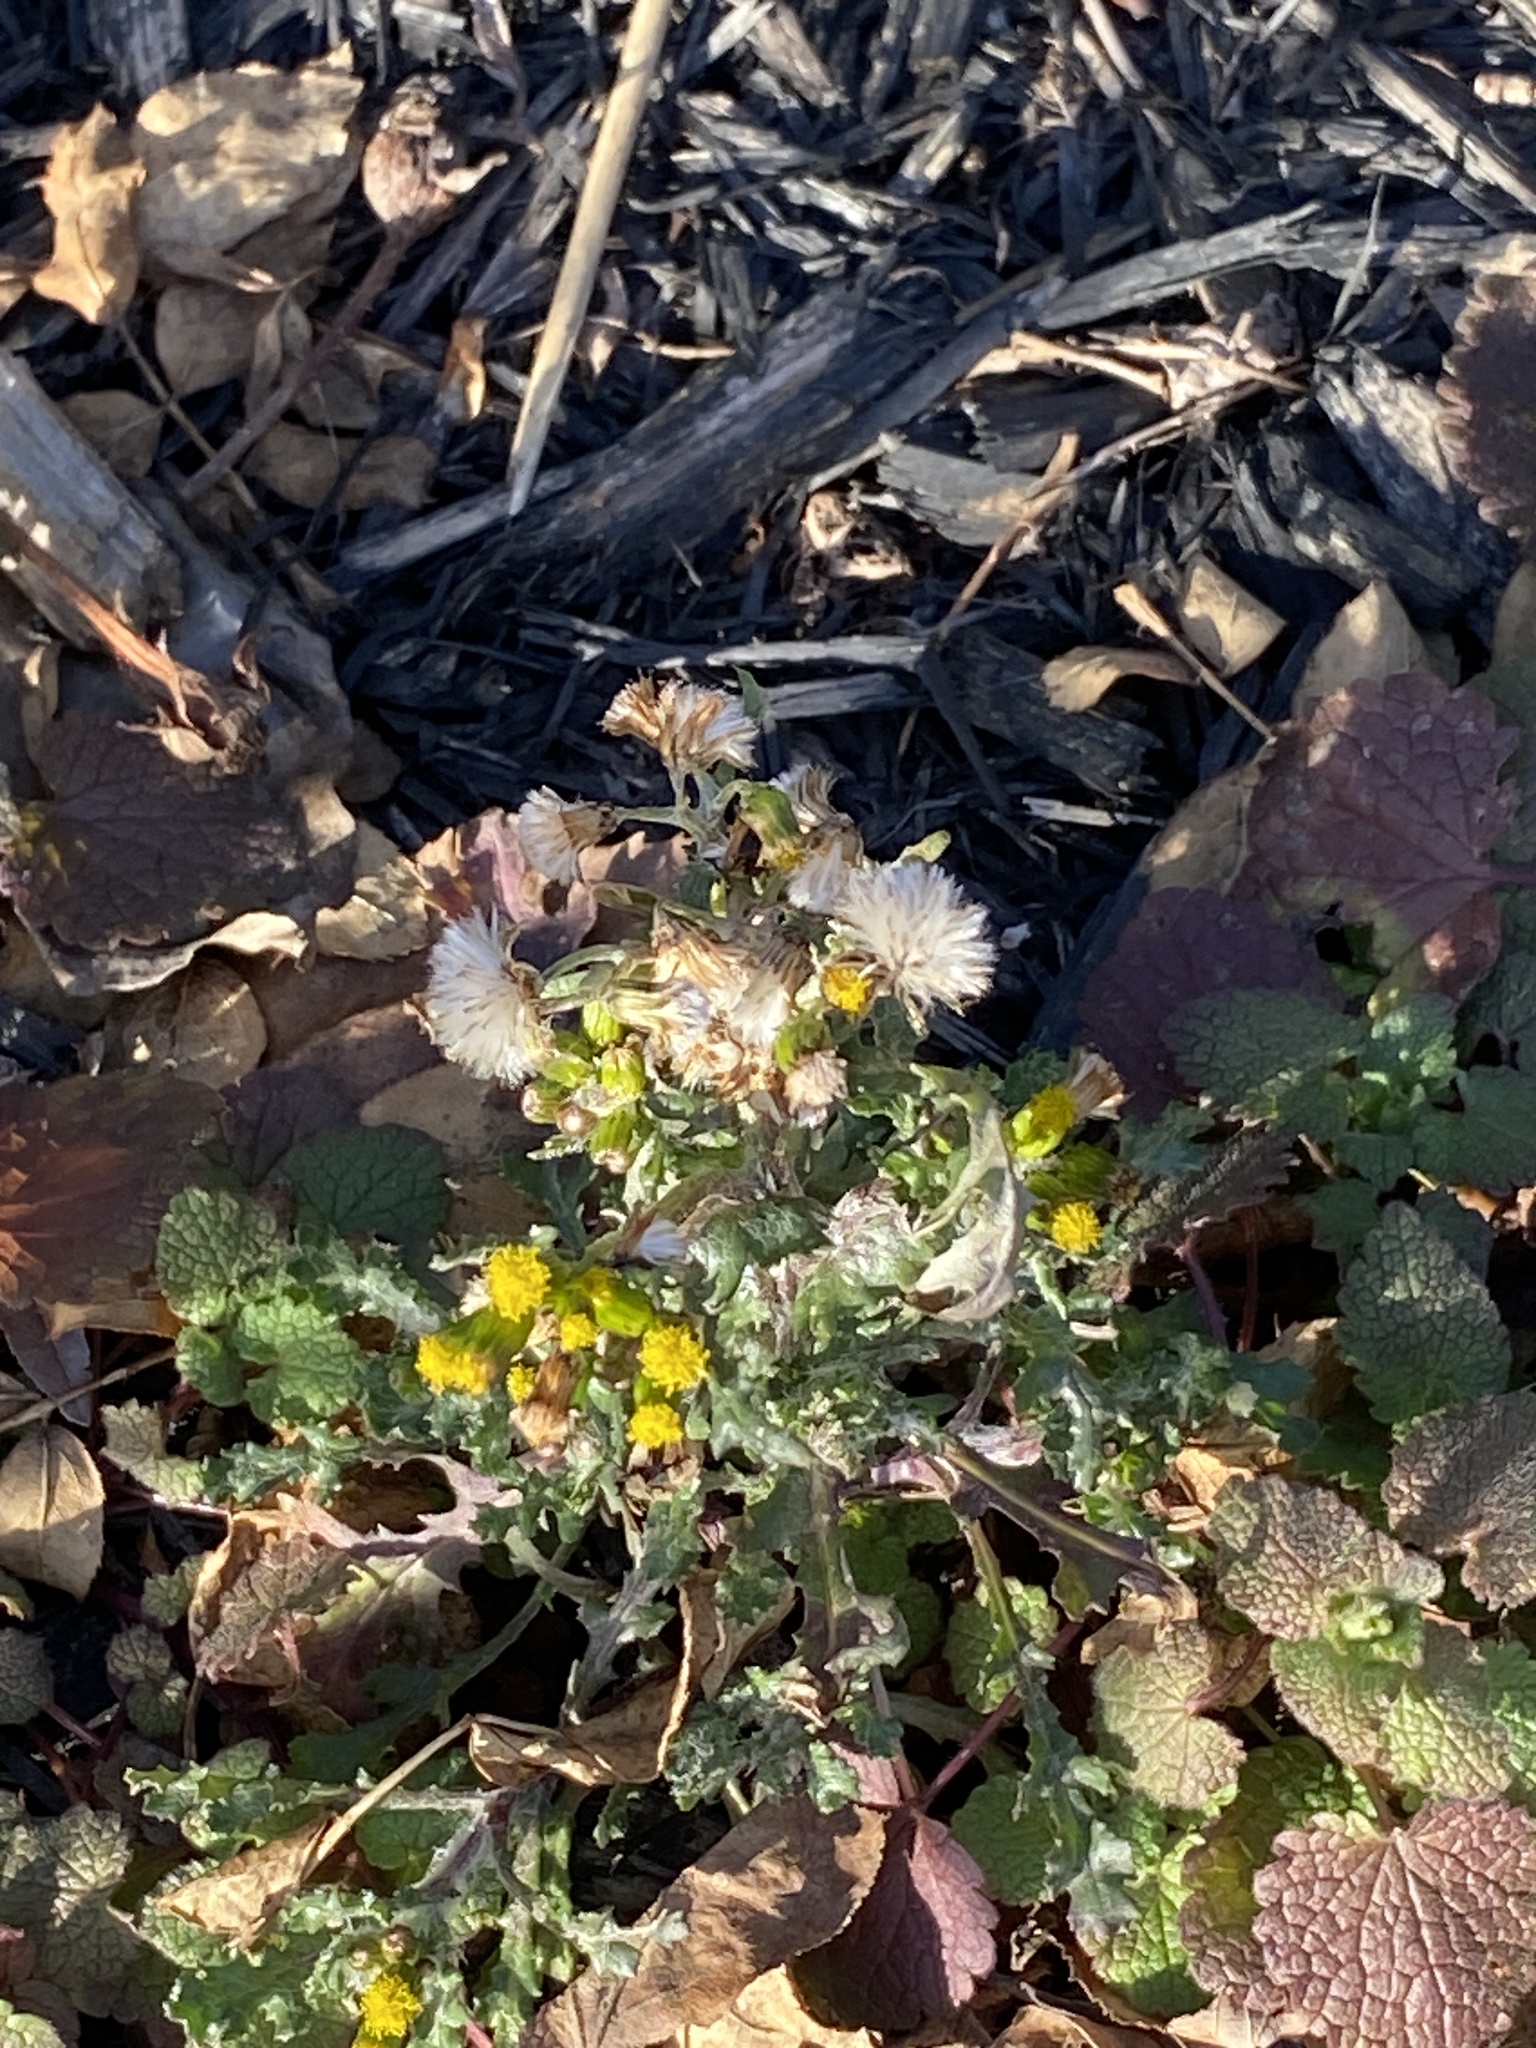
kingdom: Plantae
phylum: Tracheophyta
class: Magnoliopsida
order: Asterales
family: Asteraceae
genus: Senecio
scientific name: Senecio vulgaris
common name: Old-man-in-the-spring
